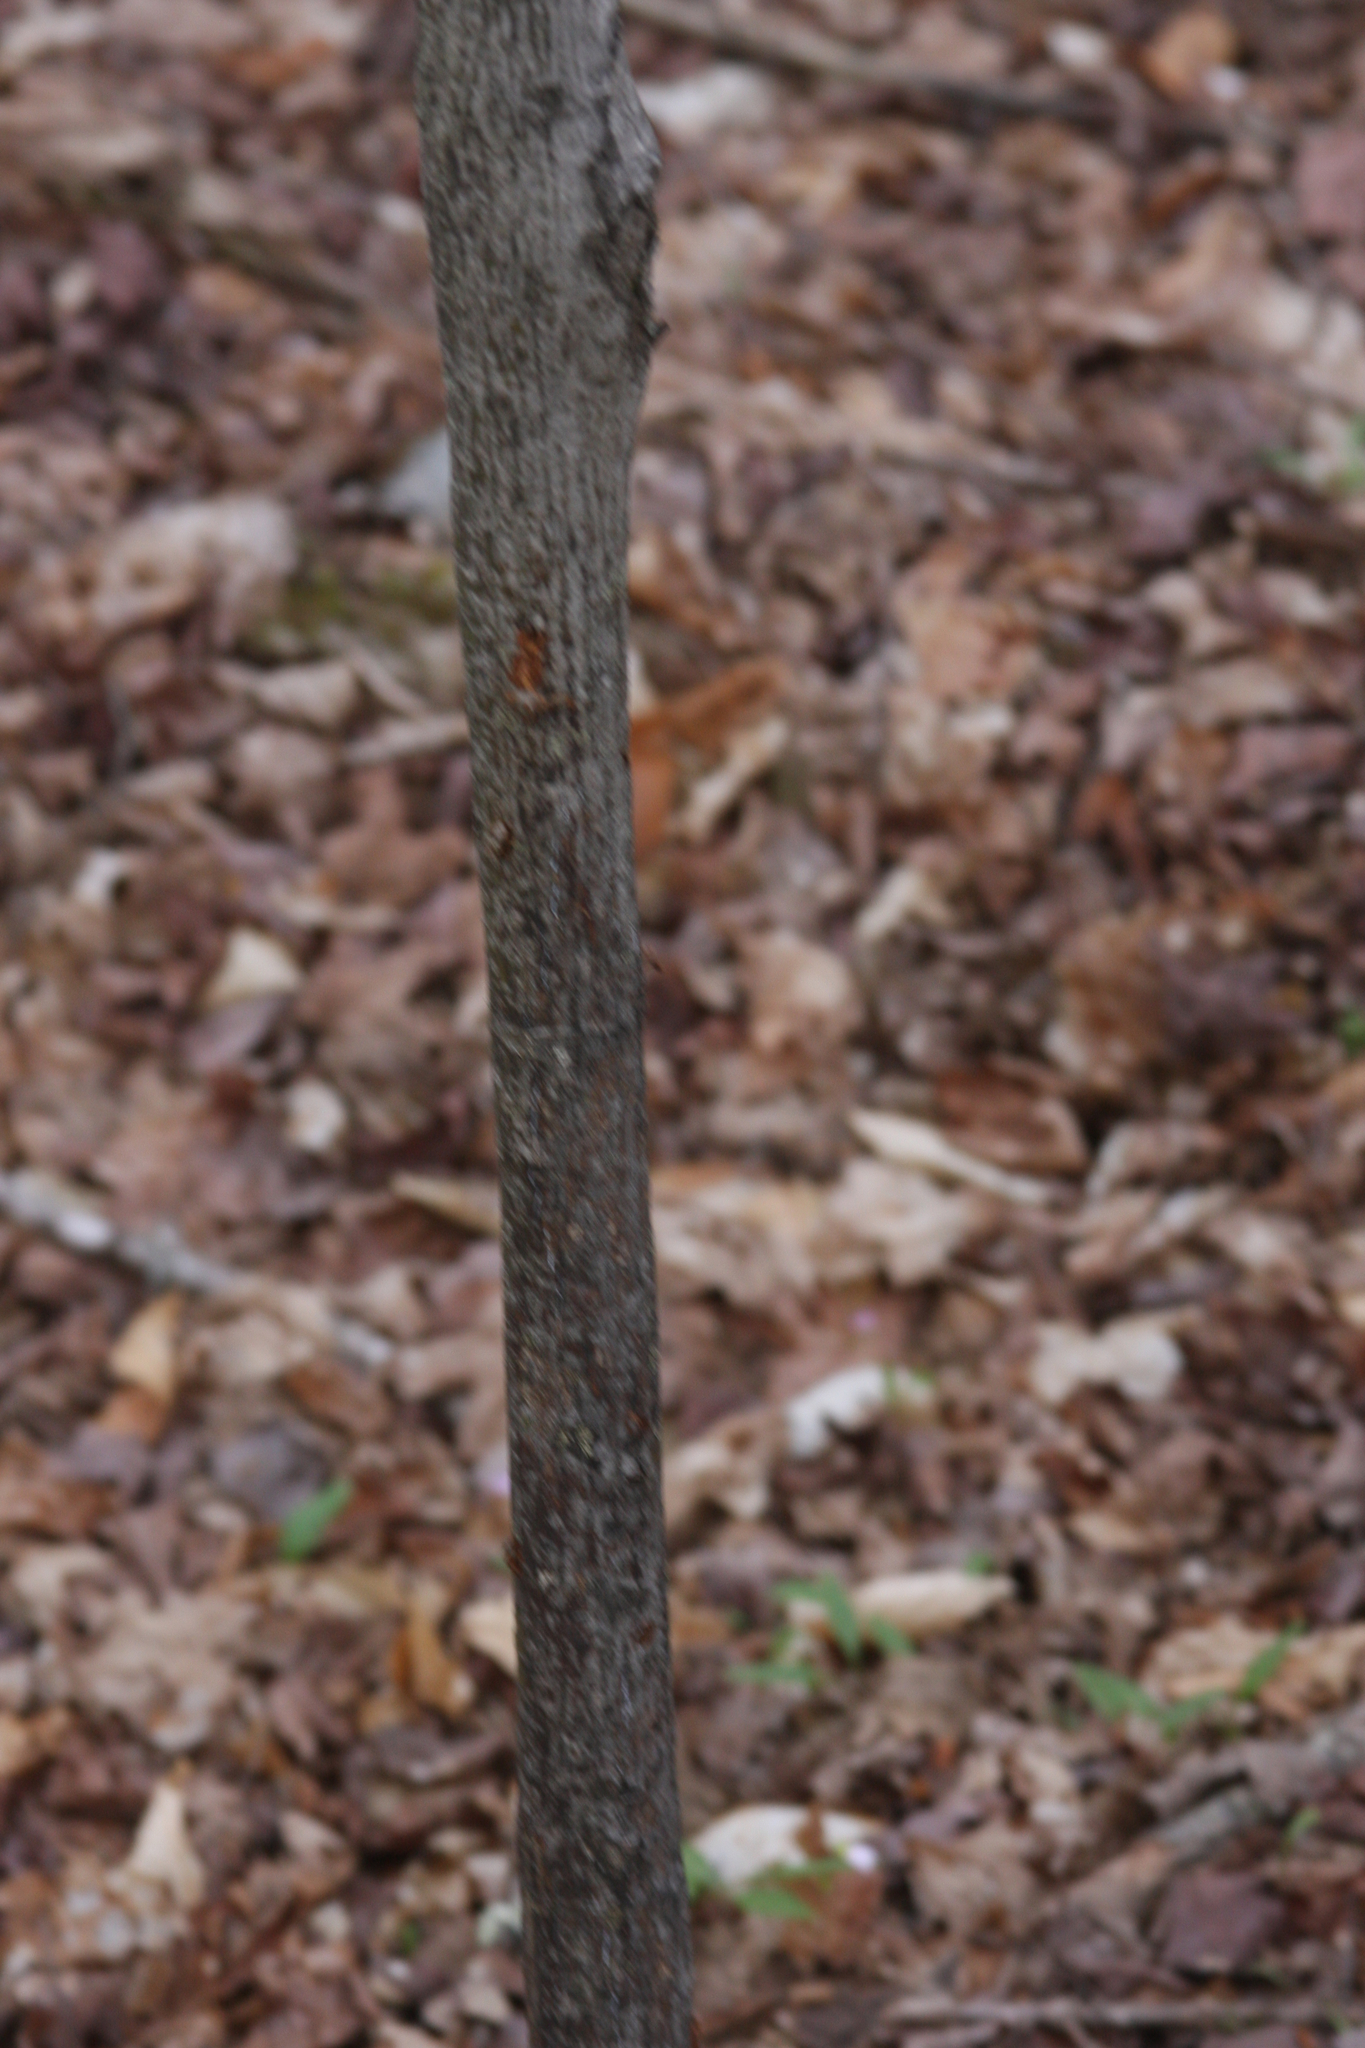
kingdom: Plantae
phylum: Tracheophyta
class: Magnoliopsida
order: Sapindales
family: Sapindaceae
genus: Acer
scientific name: Acer pensylvanicum
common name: Moosewood
